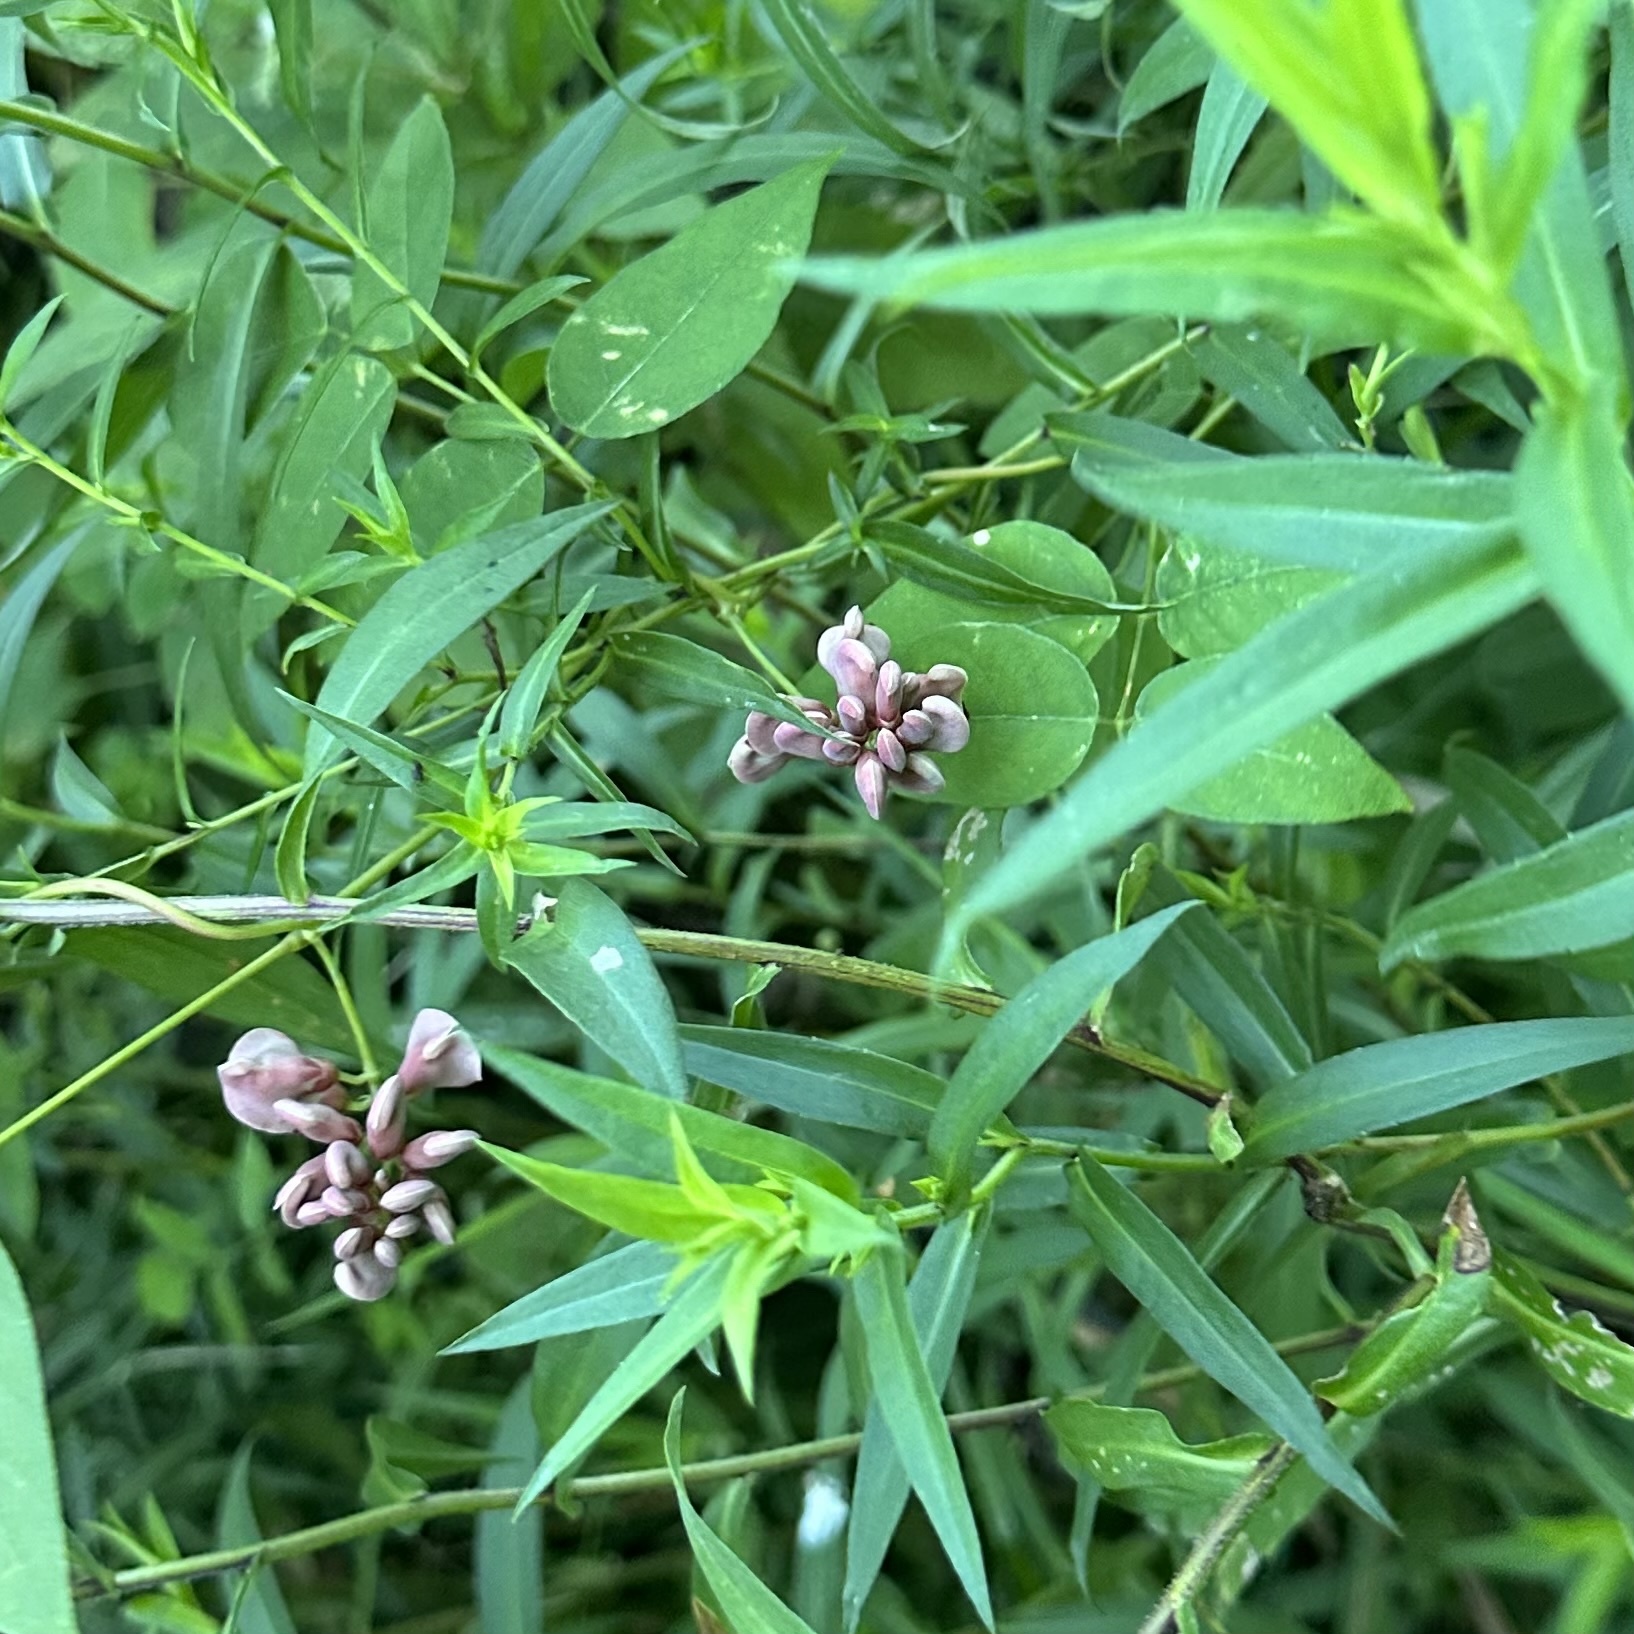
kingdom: Plantae
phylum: Tracheophyta
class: Magnoliopsida
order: Fabales
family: Fabaceae
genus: Apios
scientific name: Apios americana
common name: American potato-bean
